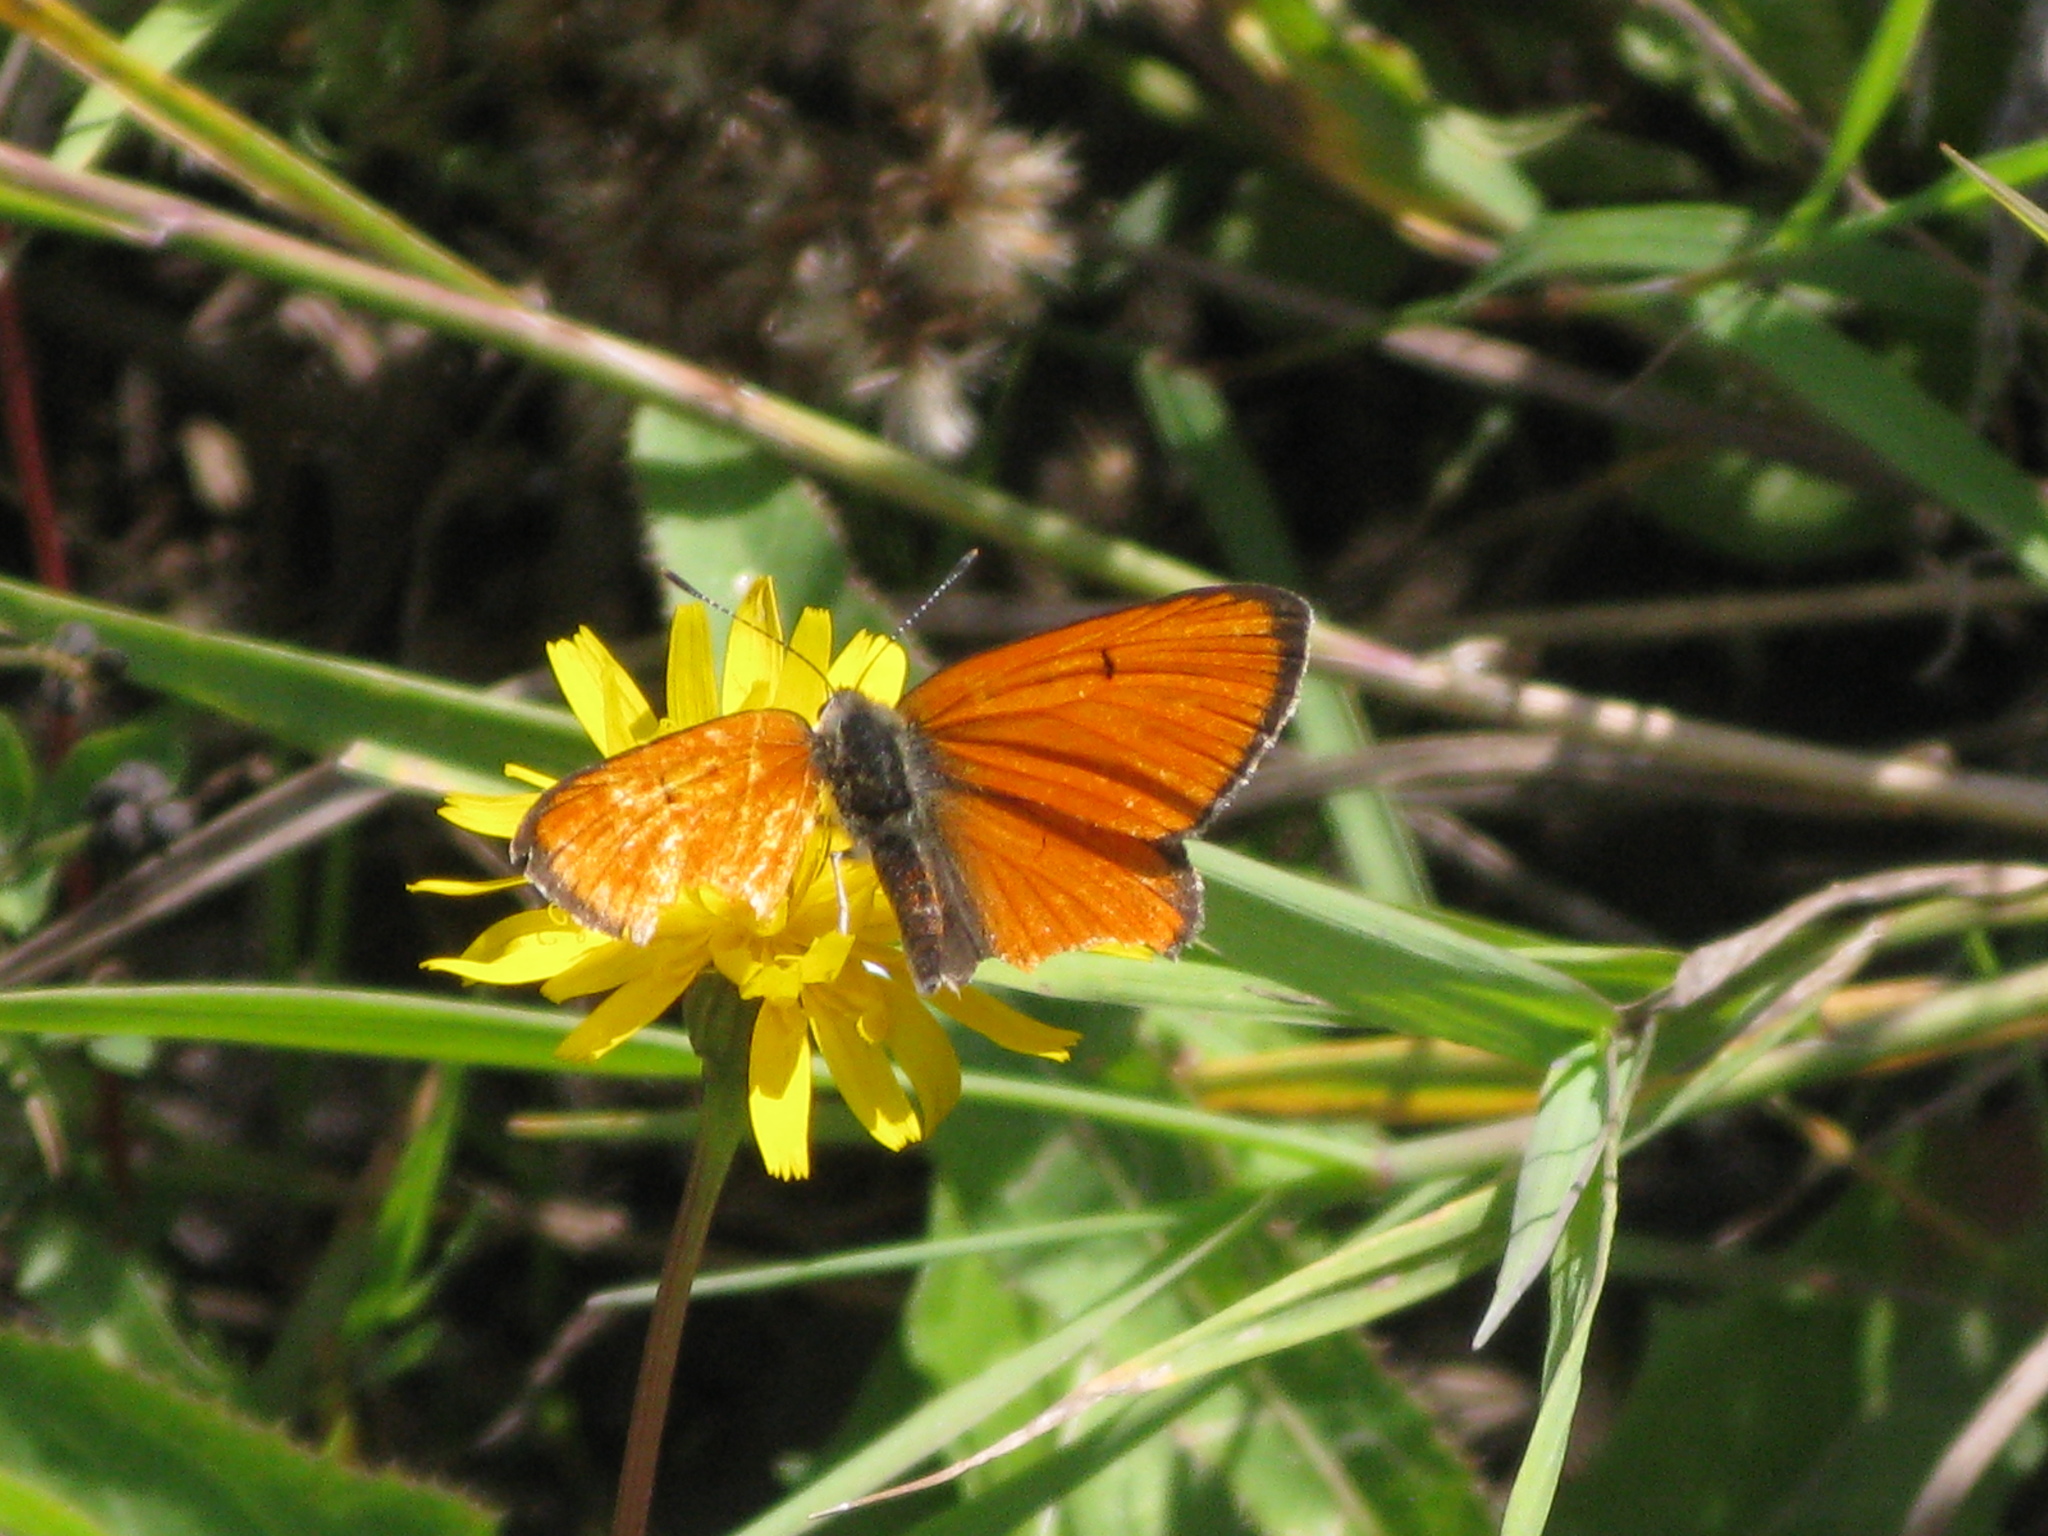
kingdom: Animalia
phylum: Arthropoda
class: Insecta
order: Lepidoptera
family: Lycaenidae
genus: Lycaena
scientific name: Lycaena dispar
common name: Large copper
